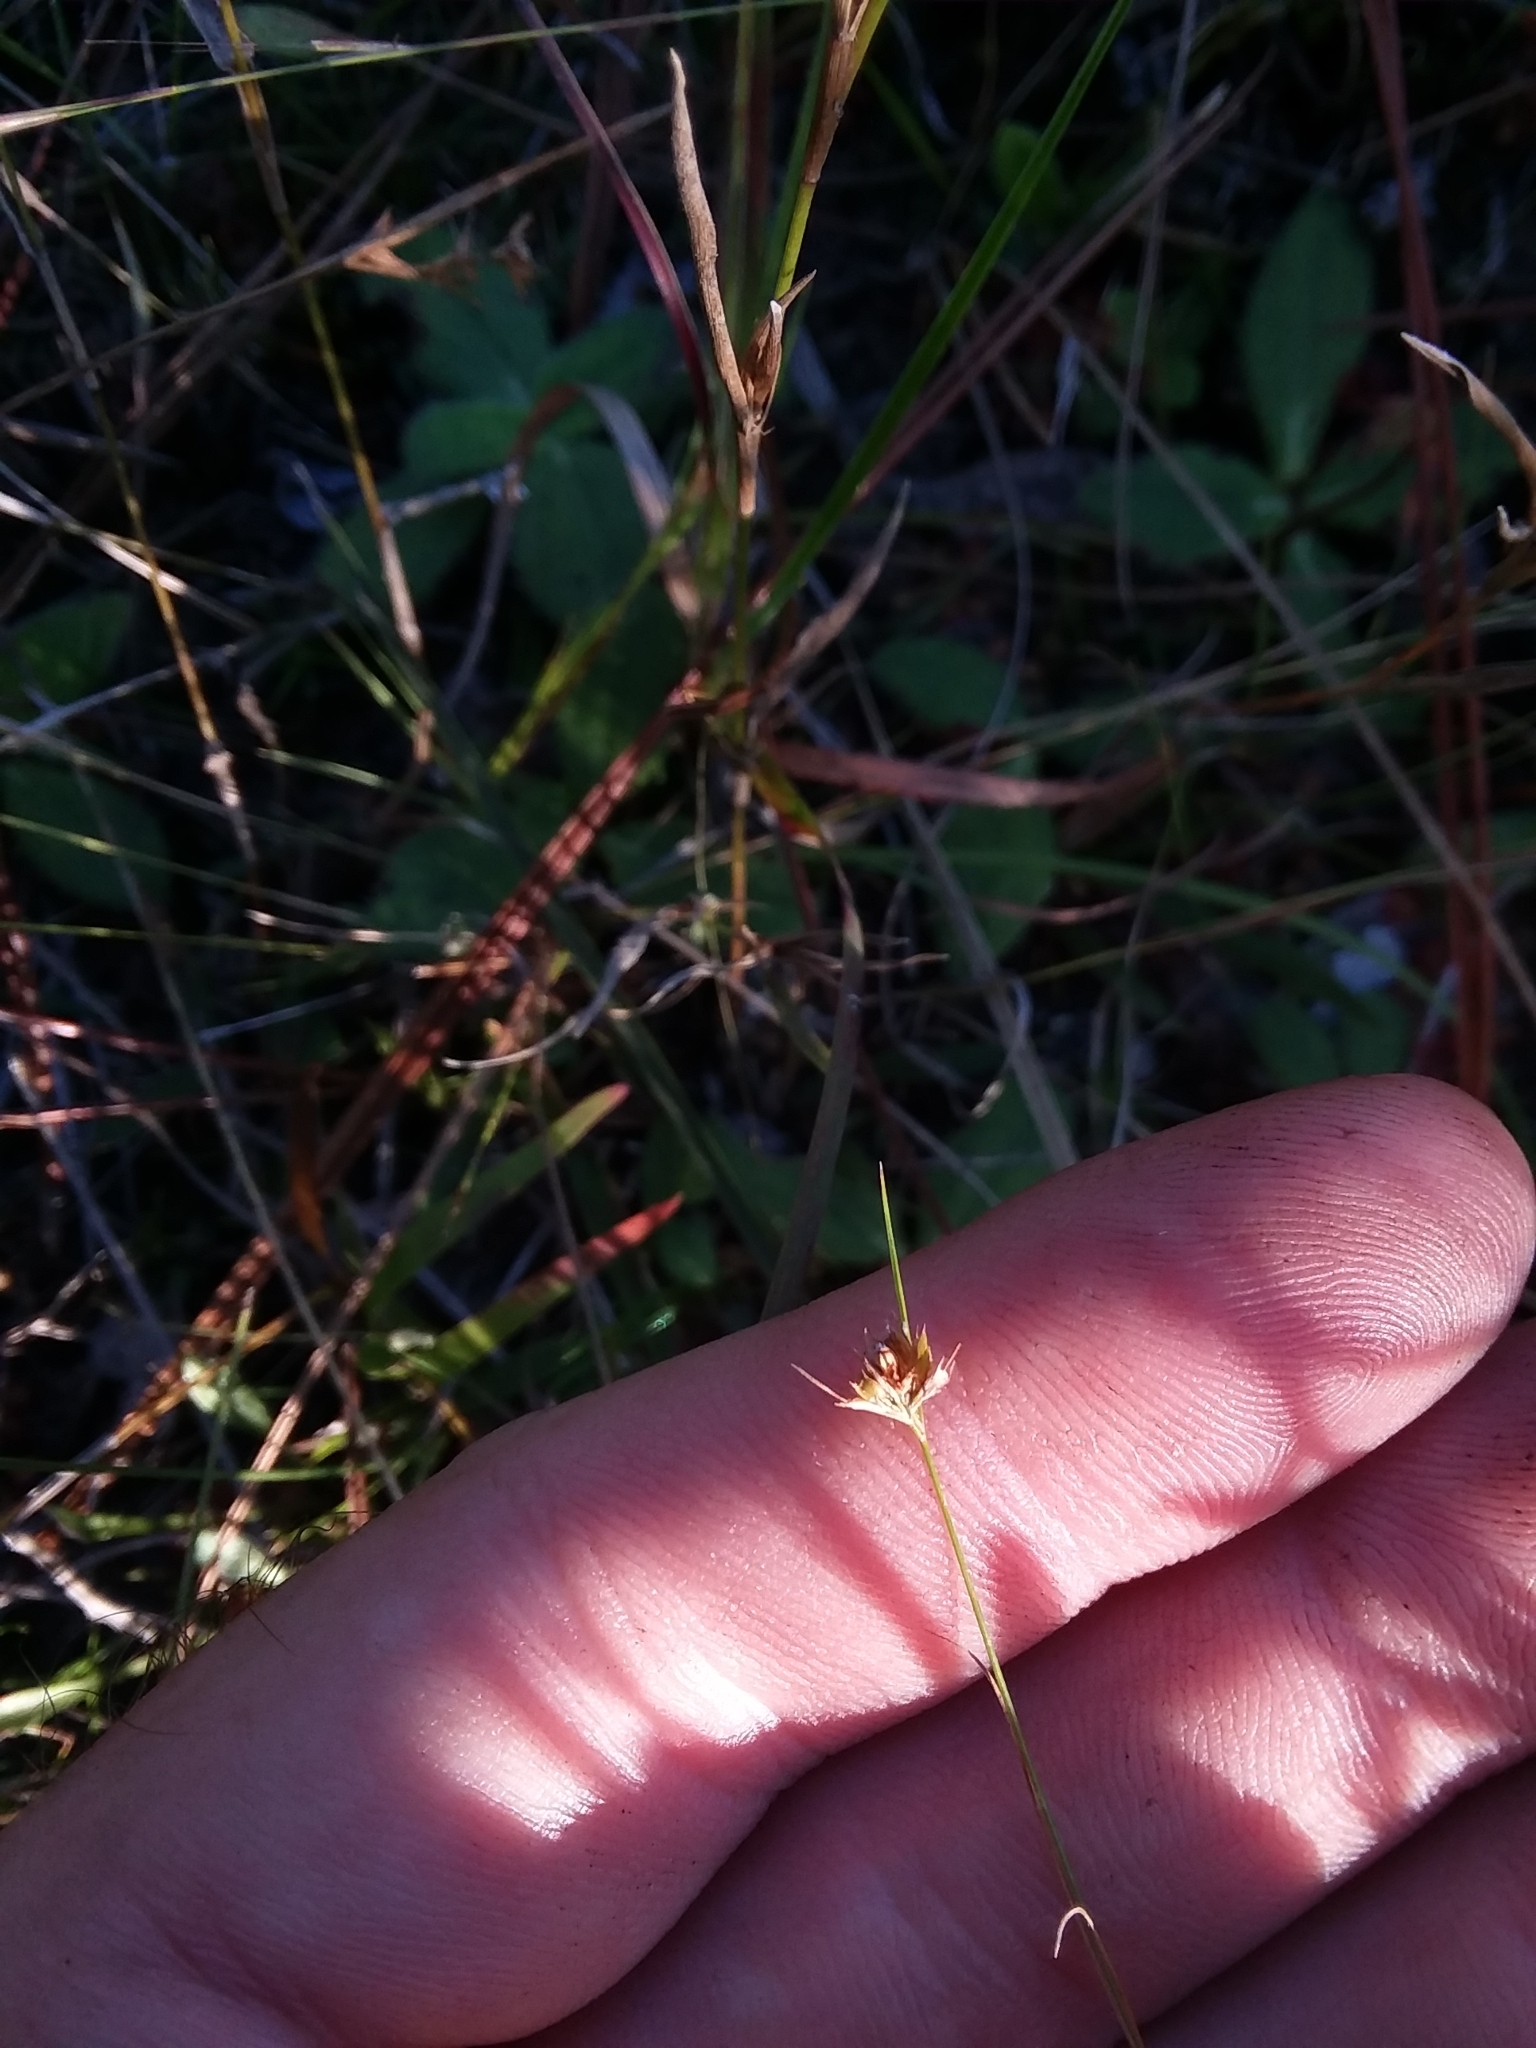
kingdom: Plantae
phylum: Tracheophyta
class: Liliopsida
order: Poales
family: Cyperaceae
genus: Rhynchospora
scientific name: Rhynchospora chapmanii
